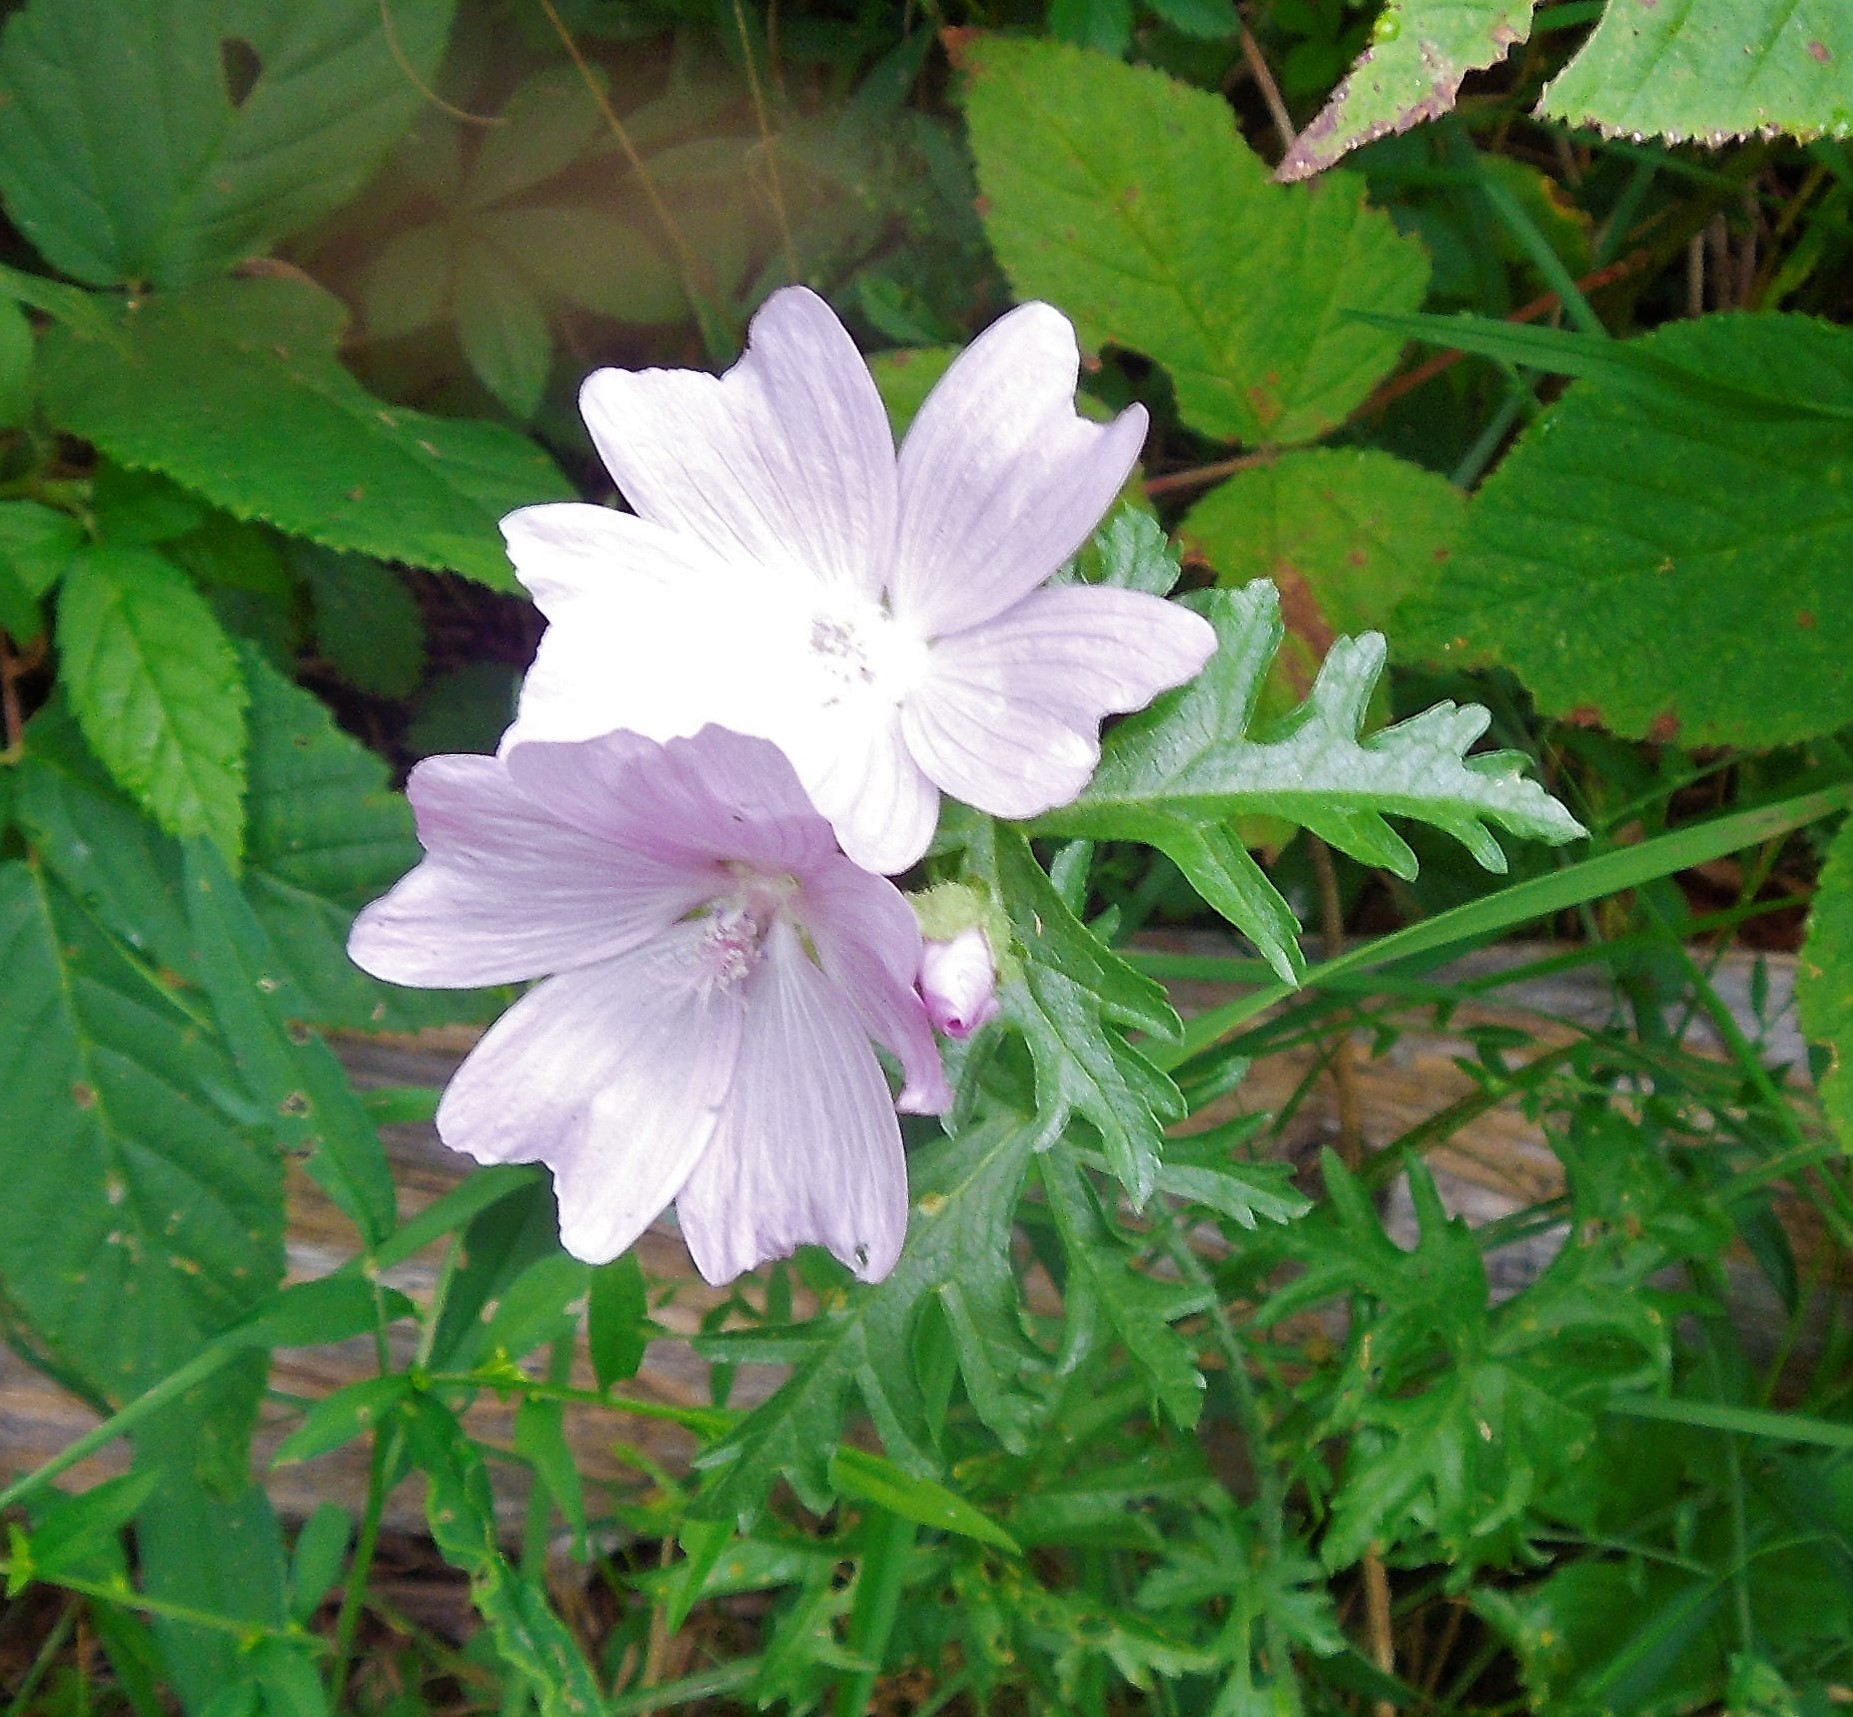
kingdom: Plantae
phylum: Tracheophyta
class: Magnoliopsida
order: Malvales
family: Malvaceae
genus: Malva
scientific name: Malva moschata
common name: Musk mallow
